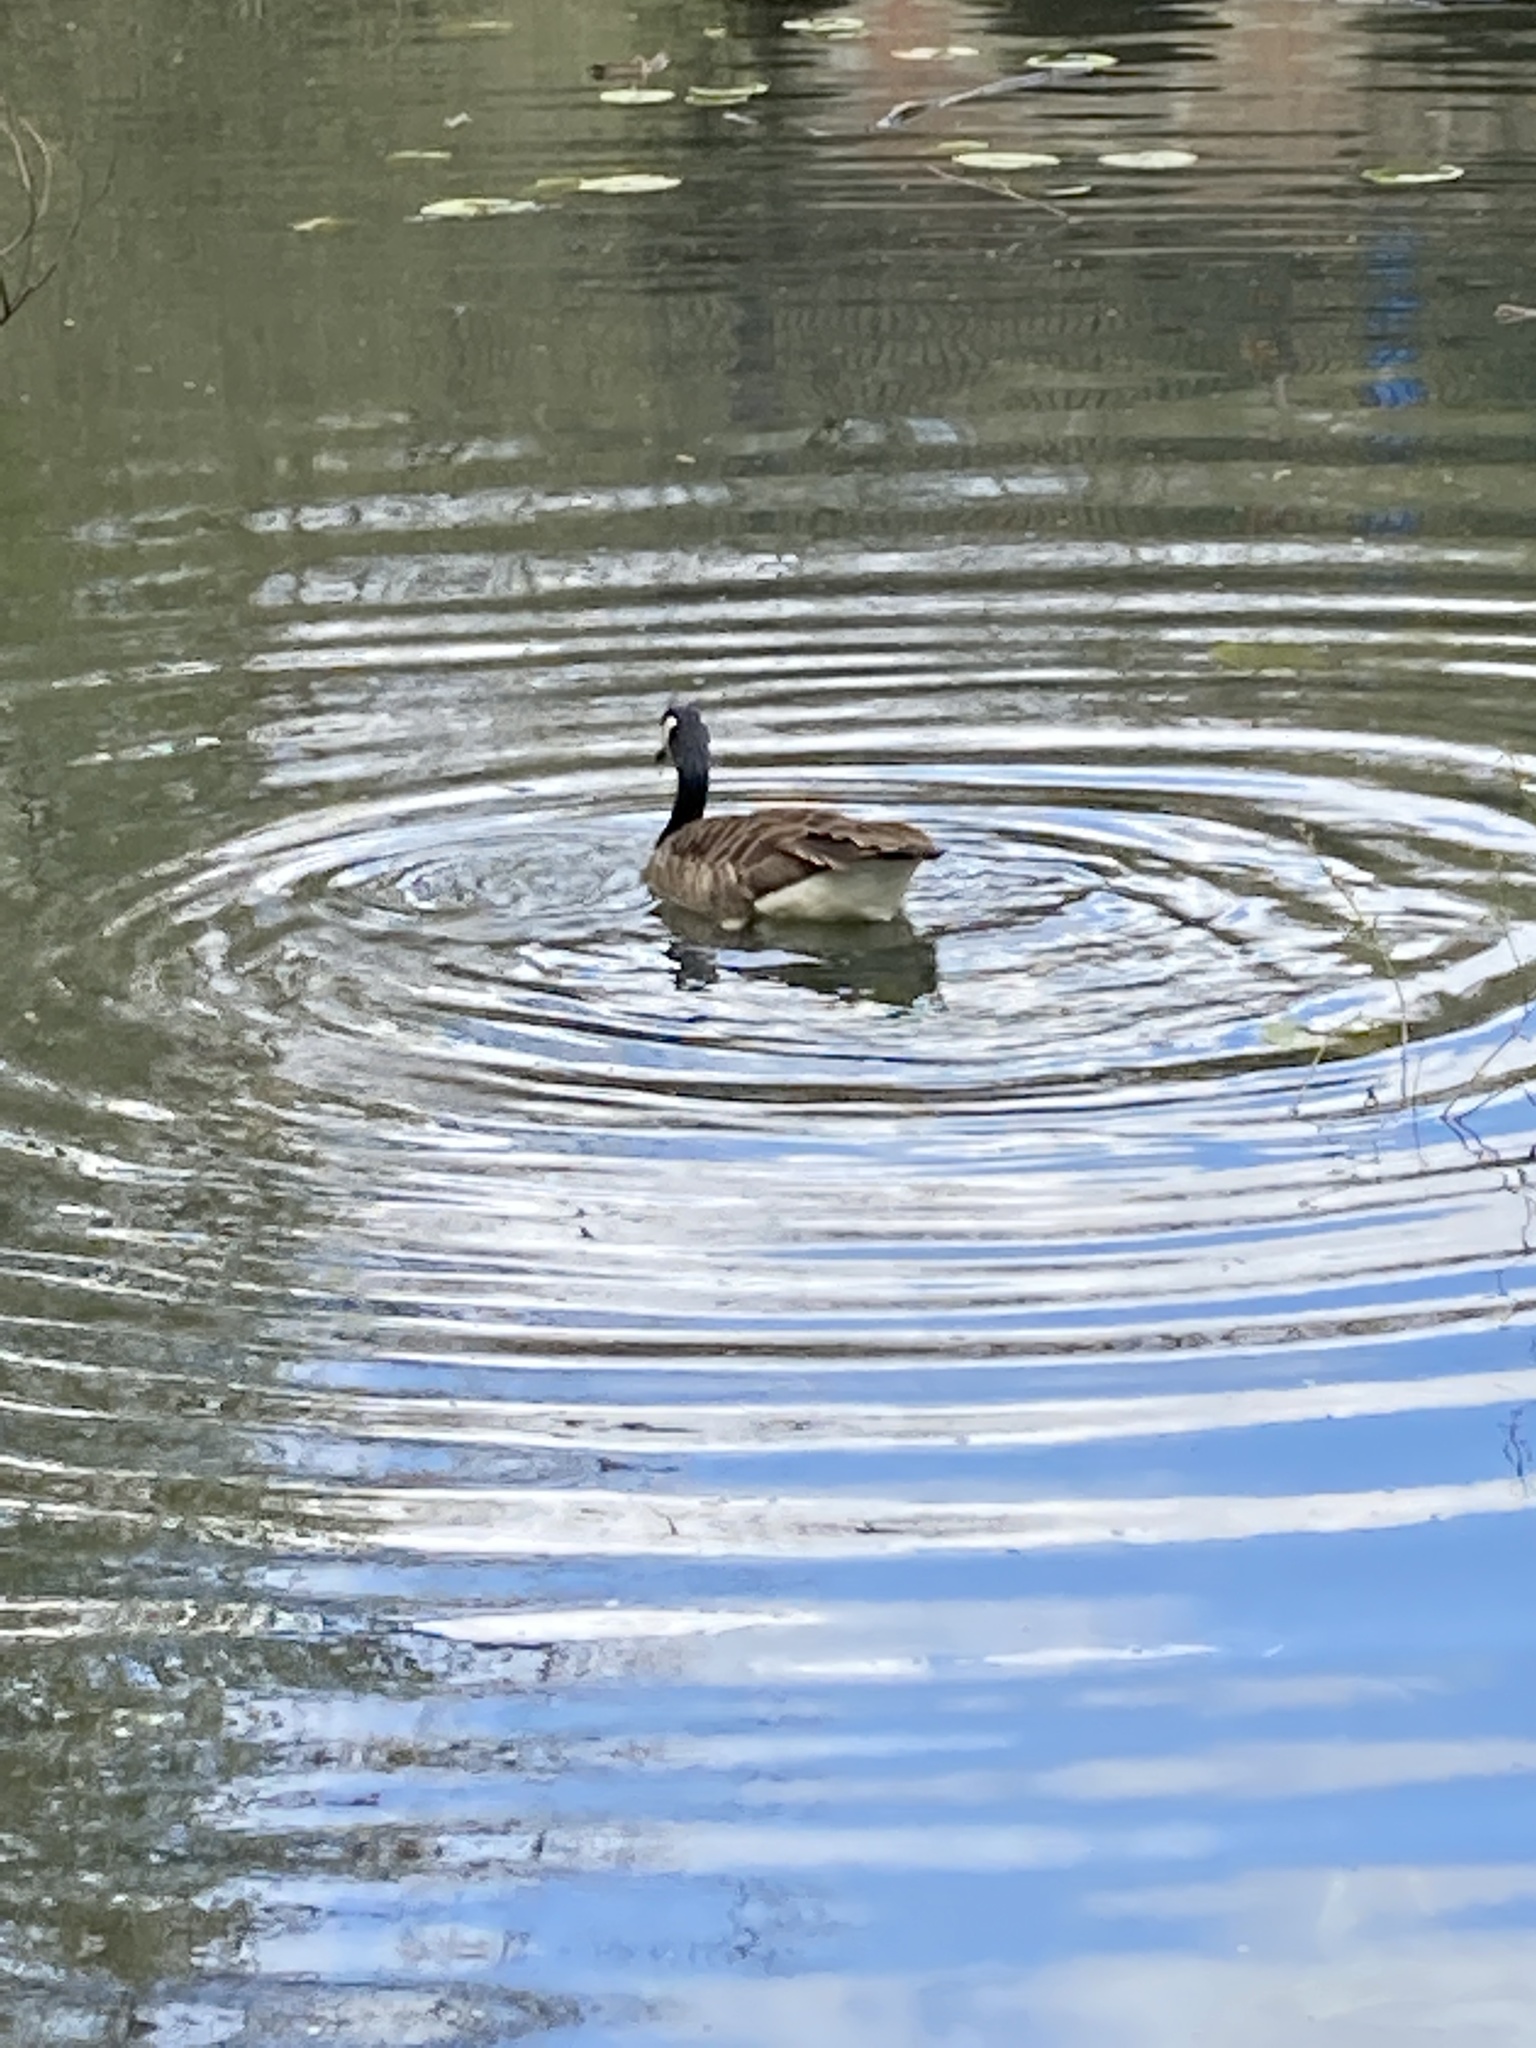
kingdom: Animalia
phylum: Chordata
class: Aves
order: Anseriformes
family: Anatidae
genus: Branta
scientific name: Branta canadensis
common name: Canada goose
